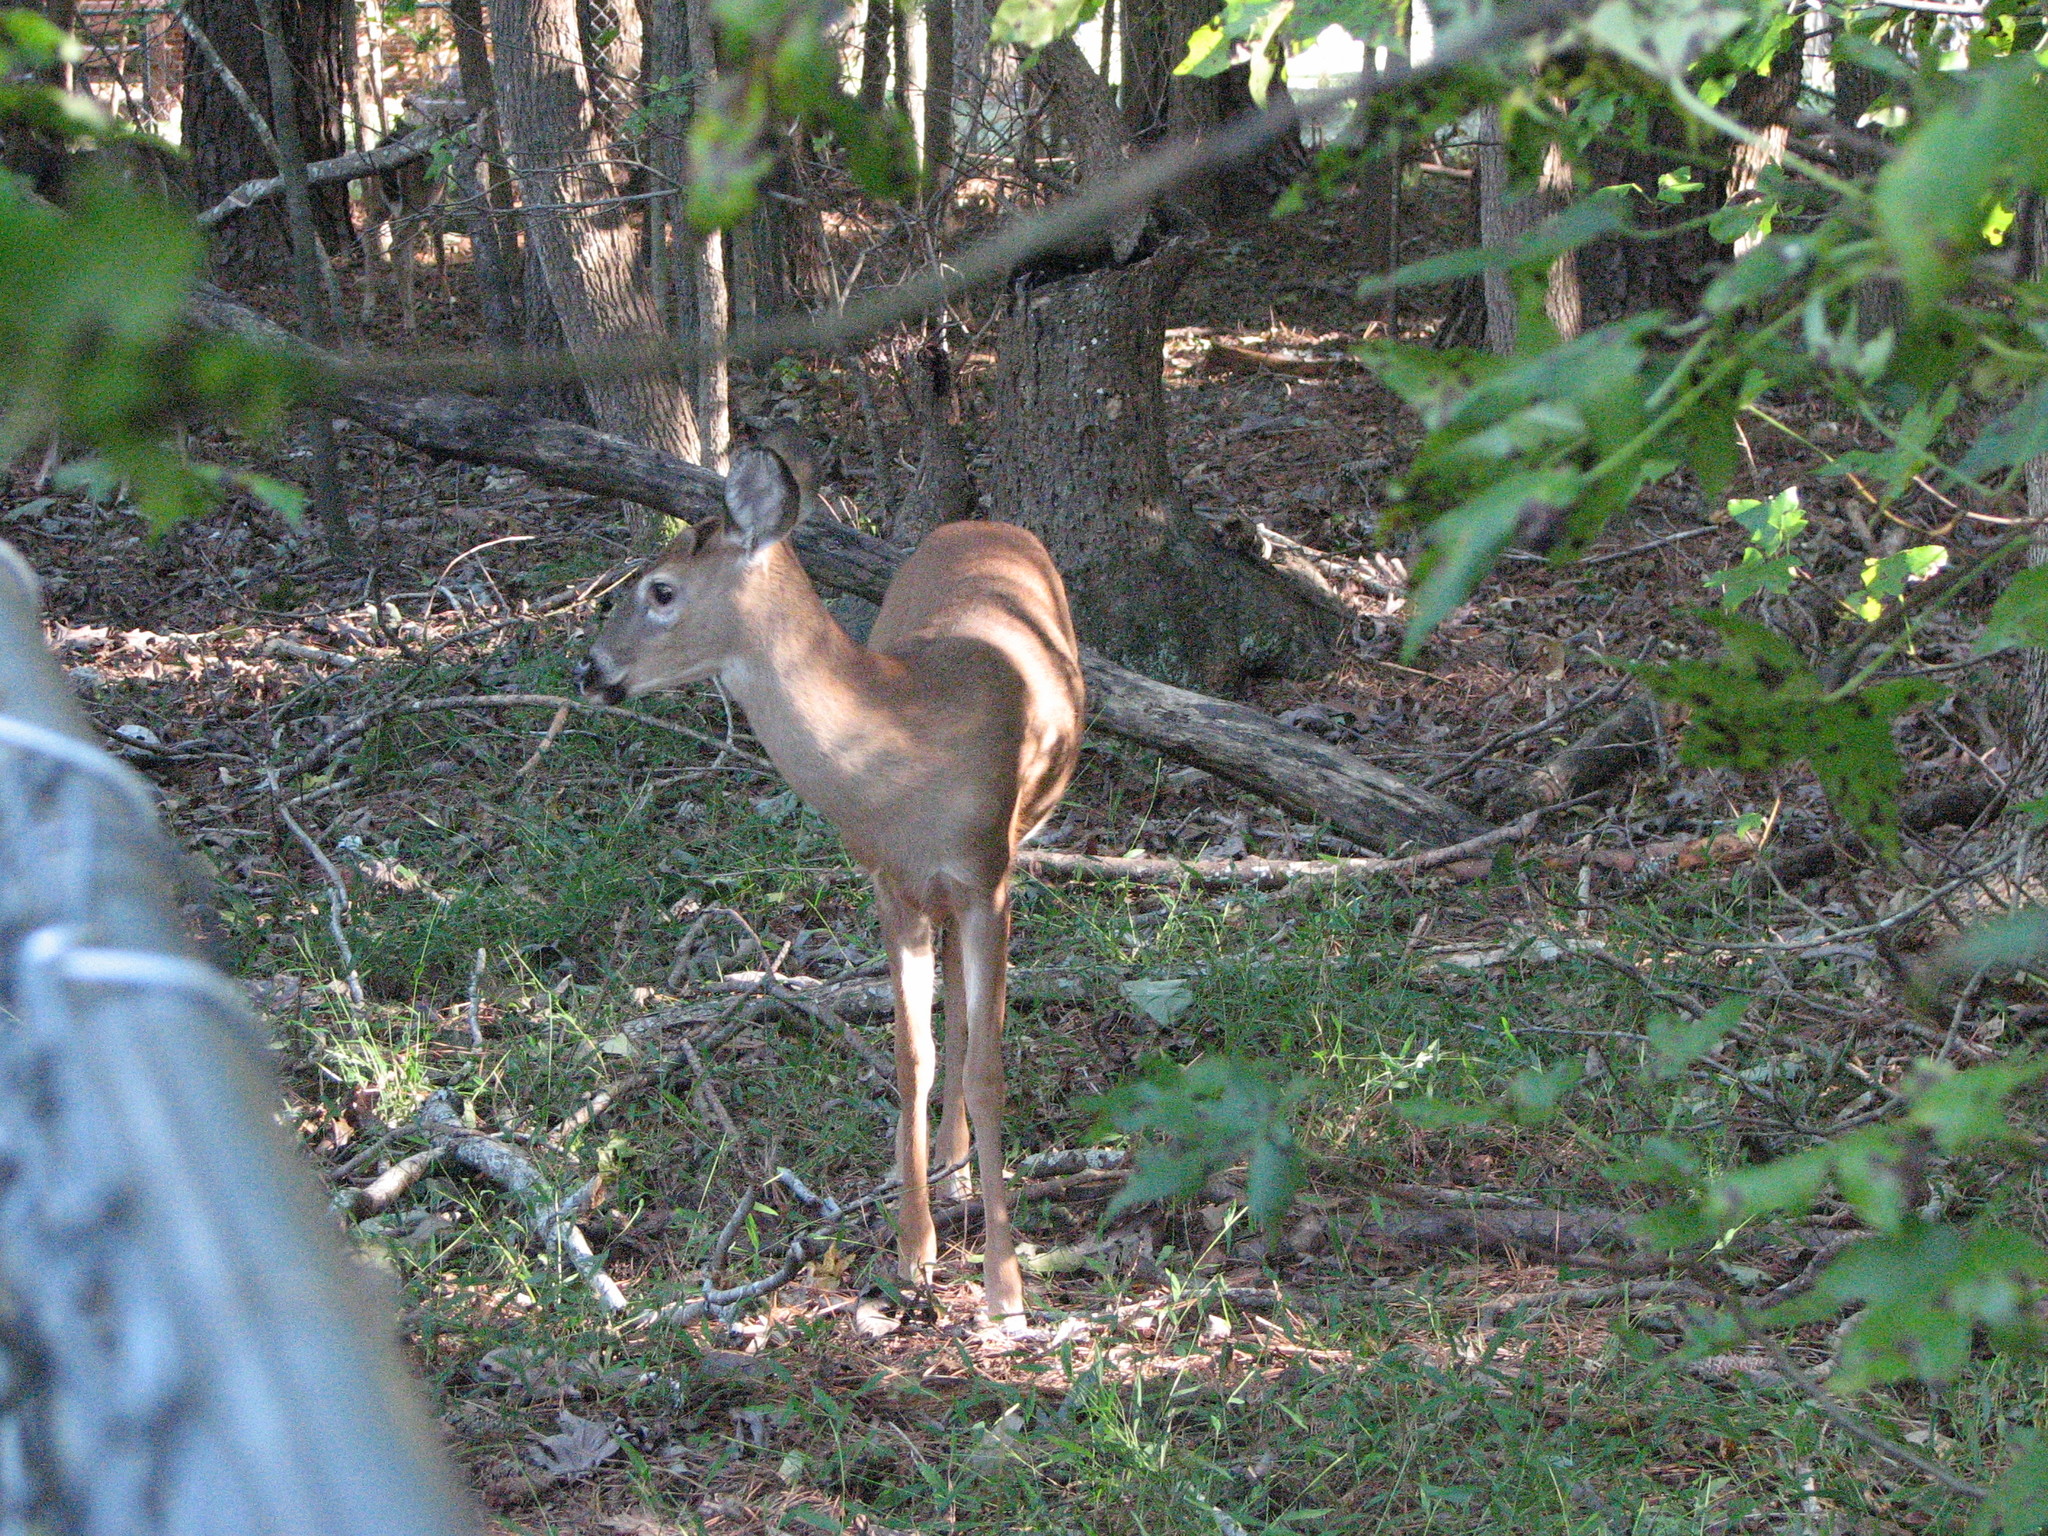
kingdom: Animalia
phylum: Chordata
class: Mammalia
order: Artiodactyla
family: Cervidae
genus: Odocoileus
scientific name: Odocoileus virginianus
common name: White-tailed deer
